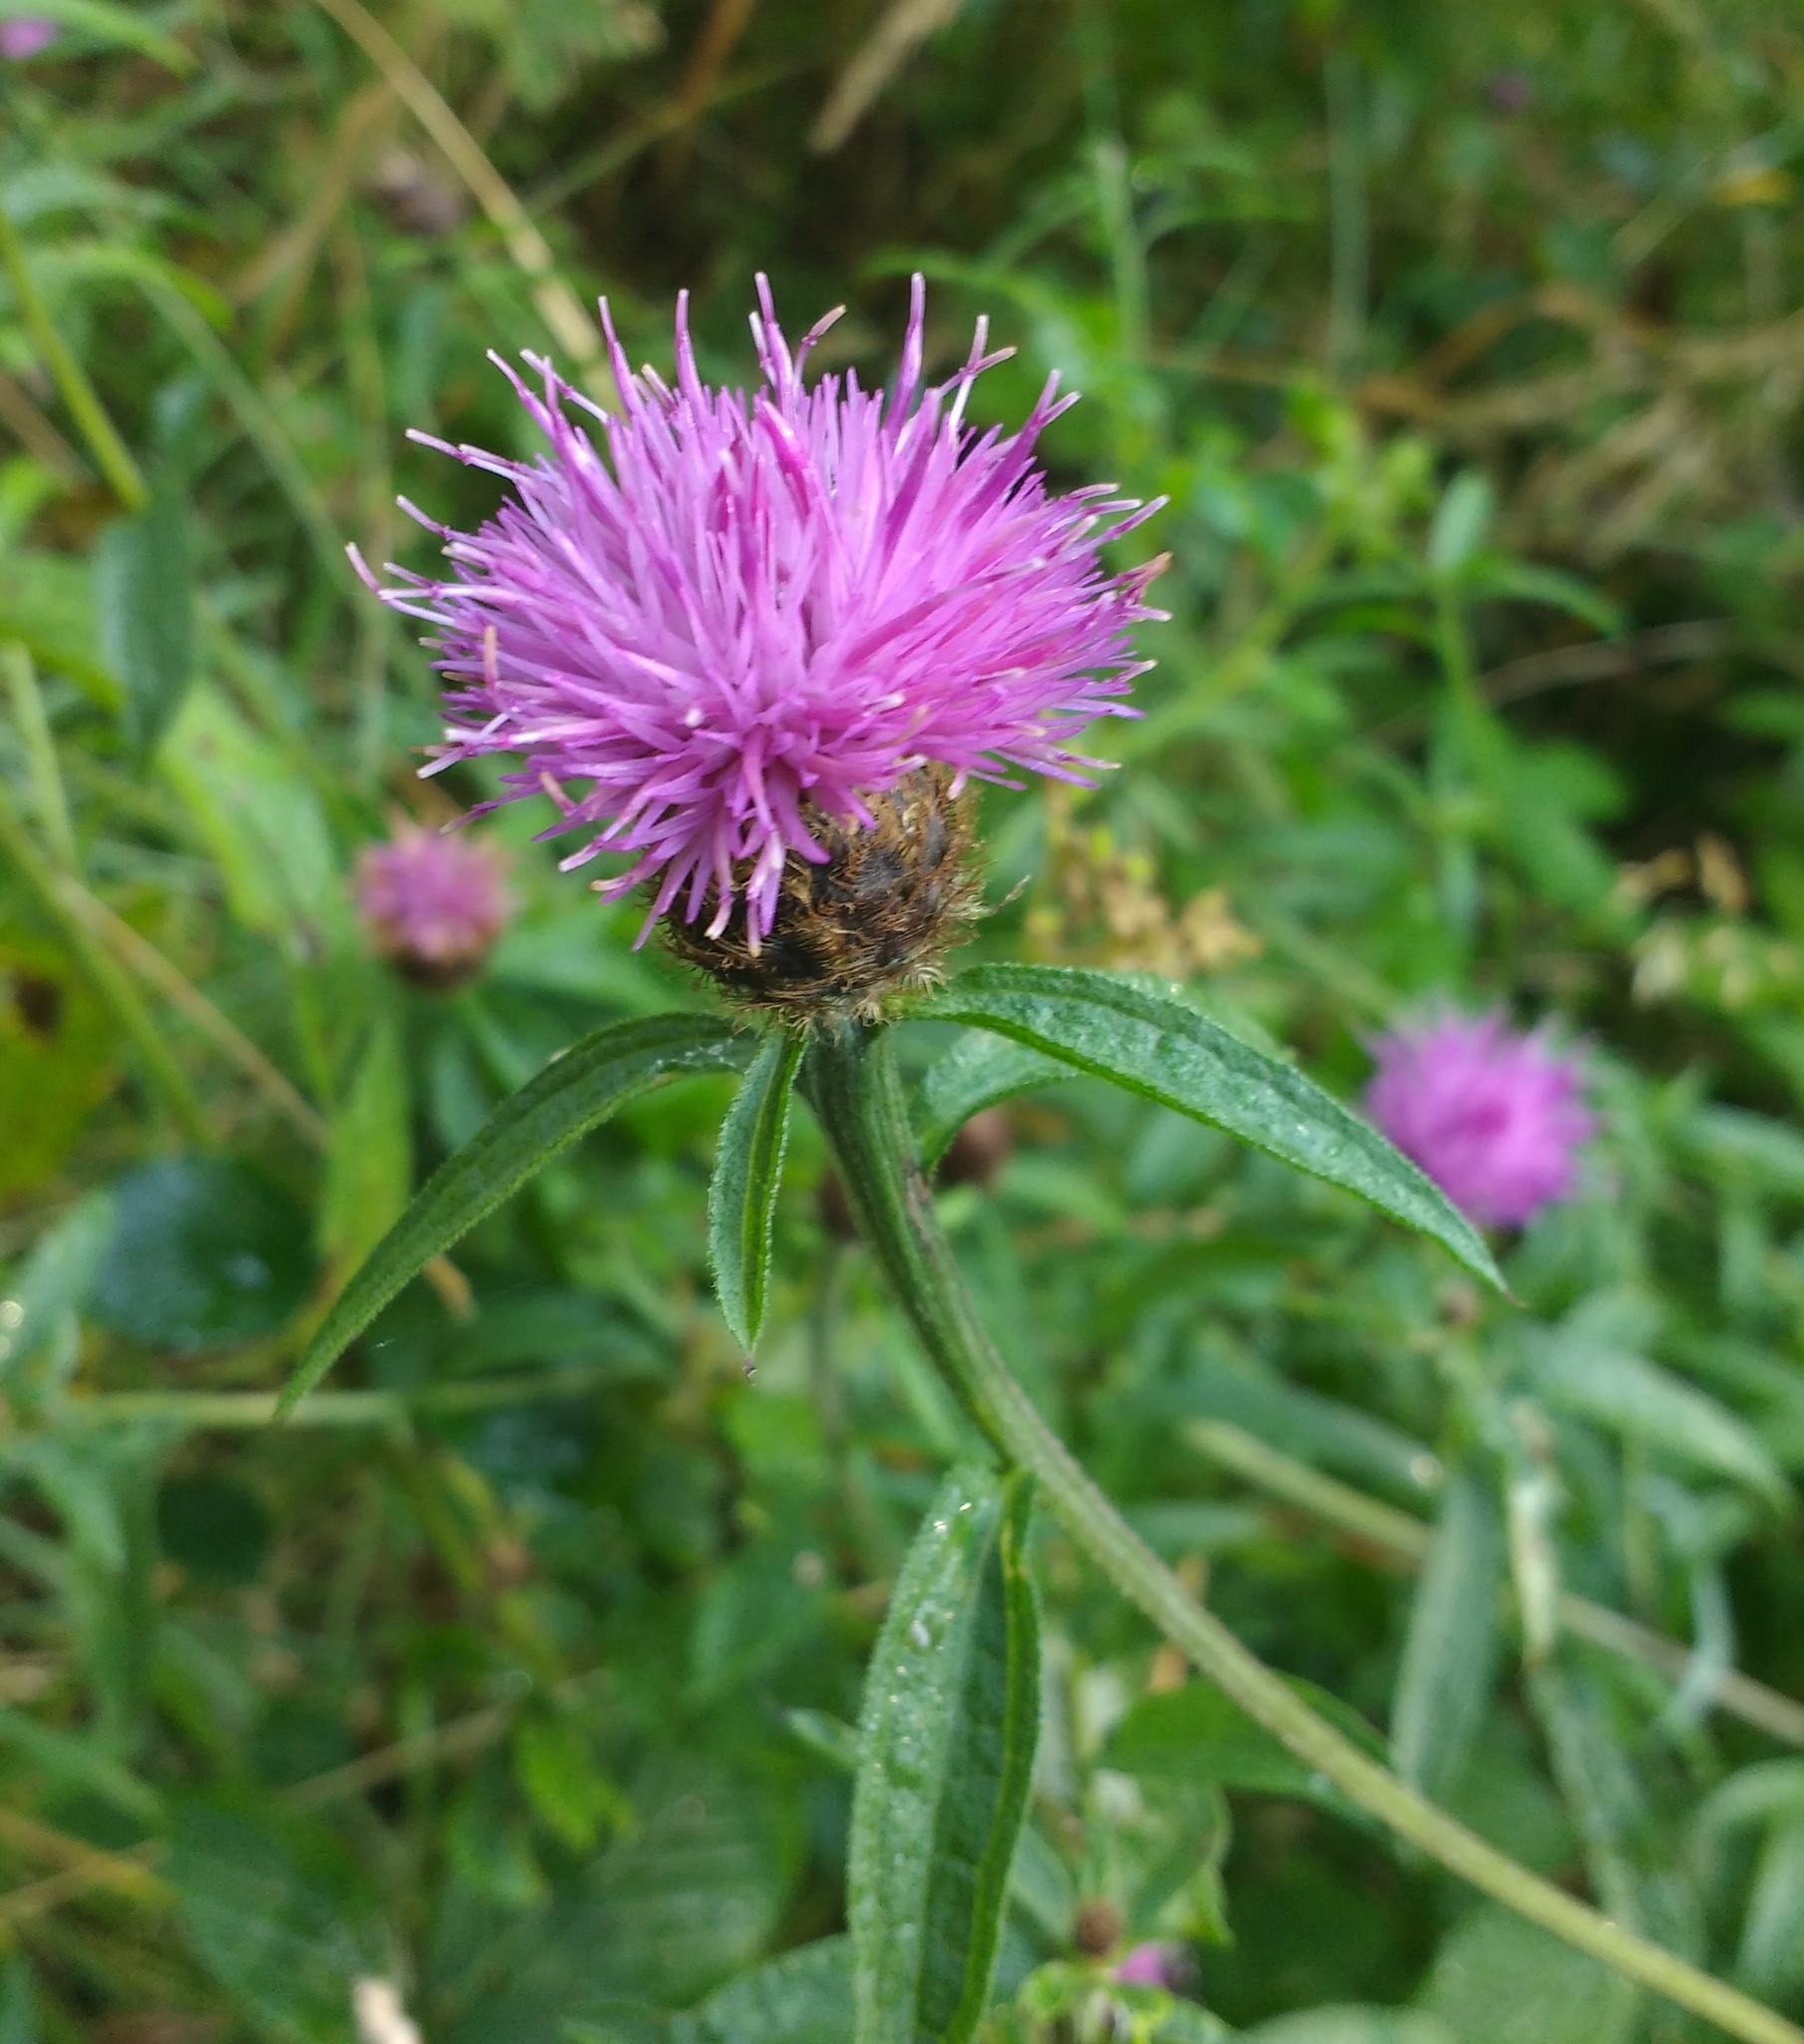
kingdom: Plantae
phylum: Tracheophyta
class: Magnoliopsida
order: Asterales
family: Asteraceae
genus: Centaurea
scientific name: Centaurea nigra
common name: Lesser knapweed
